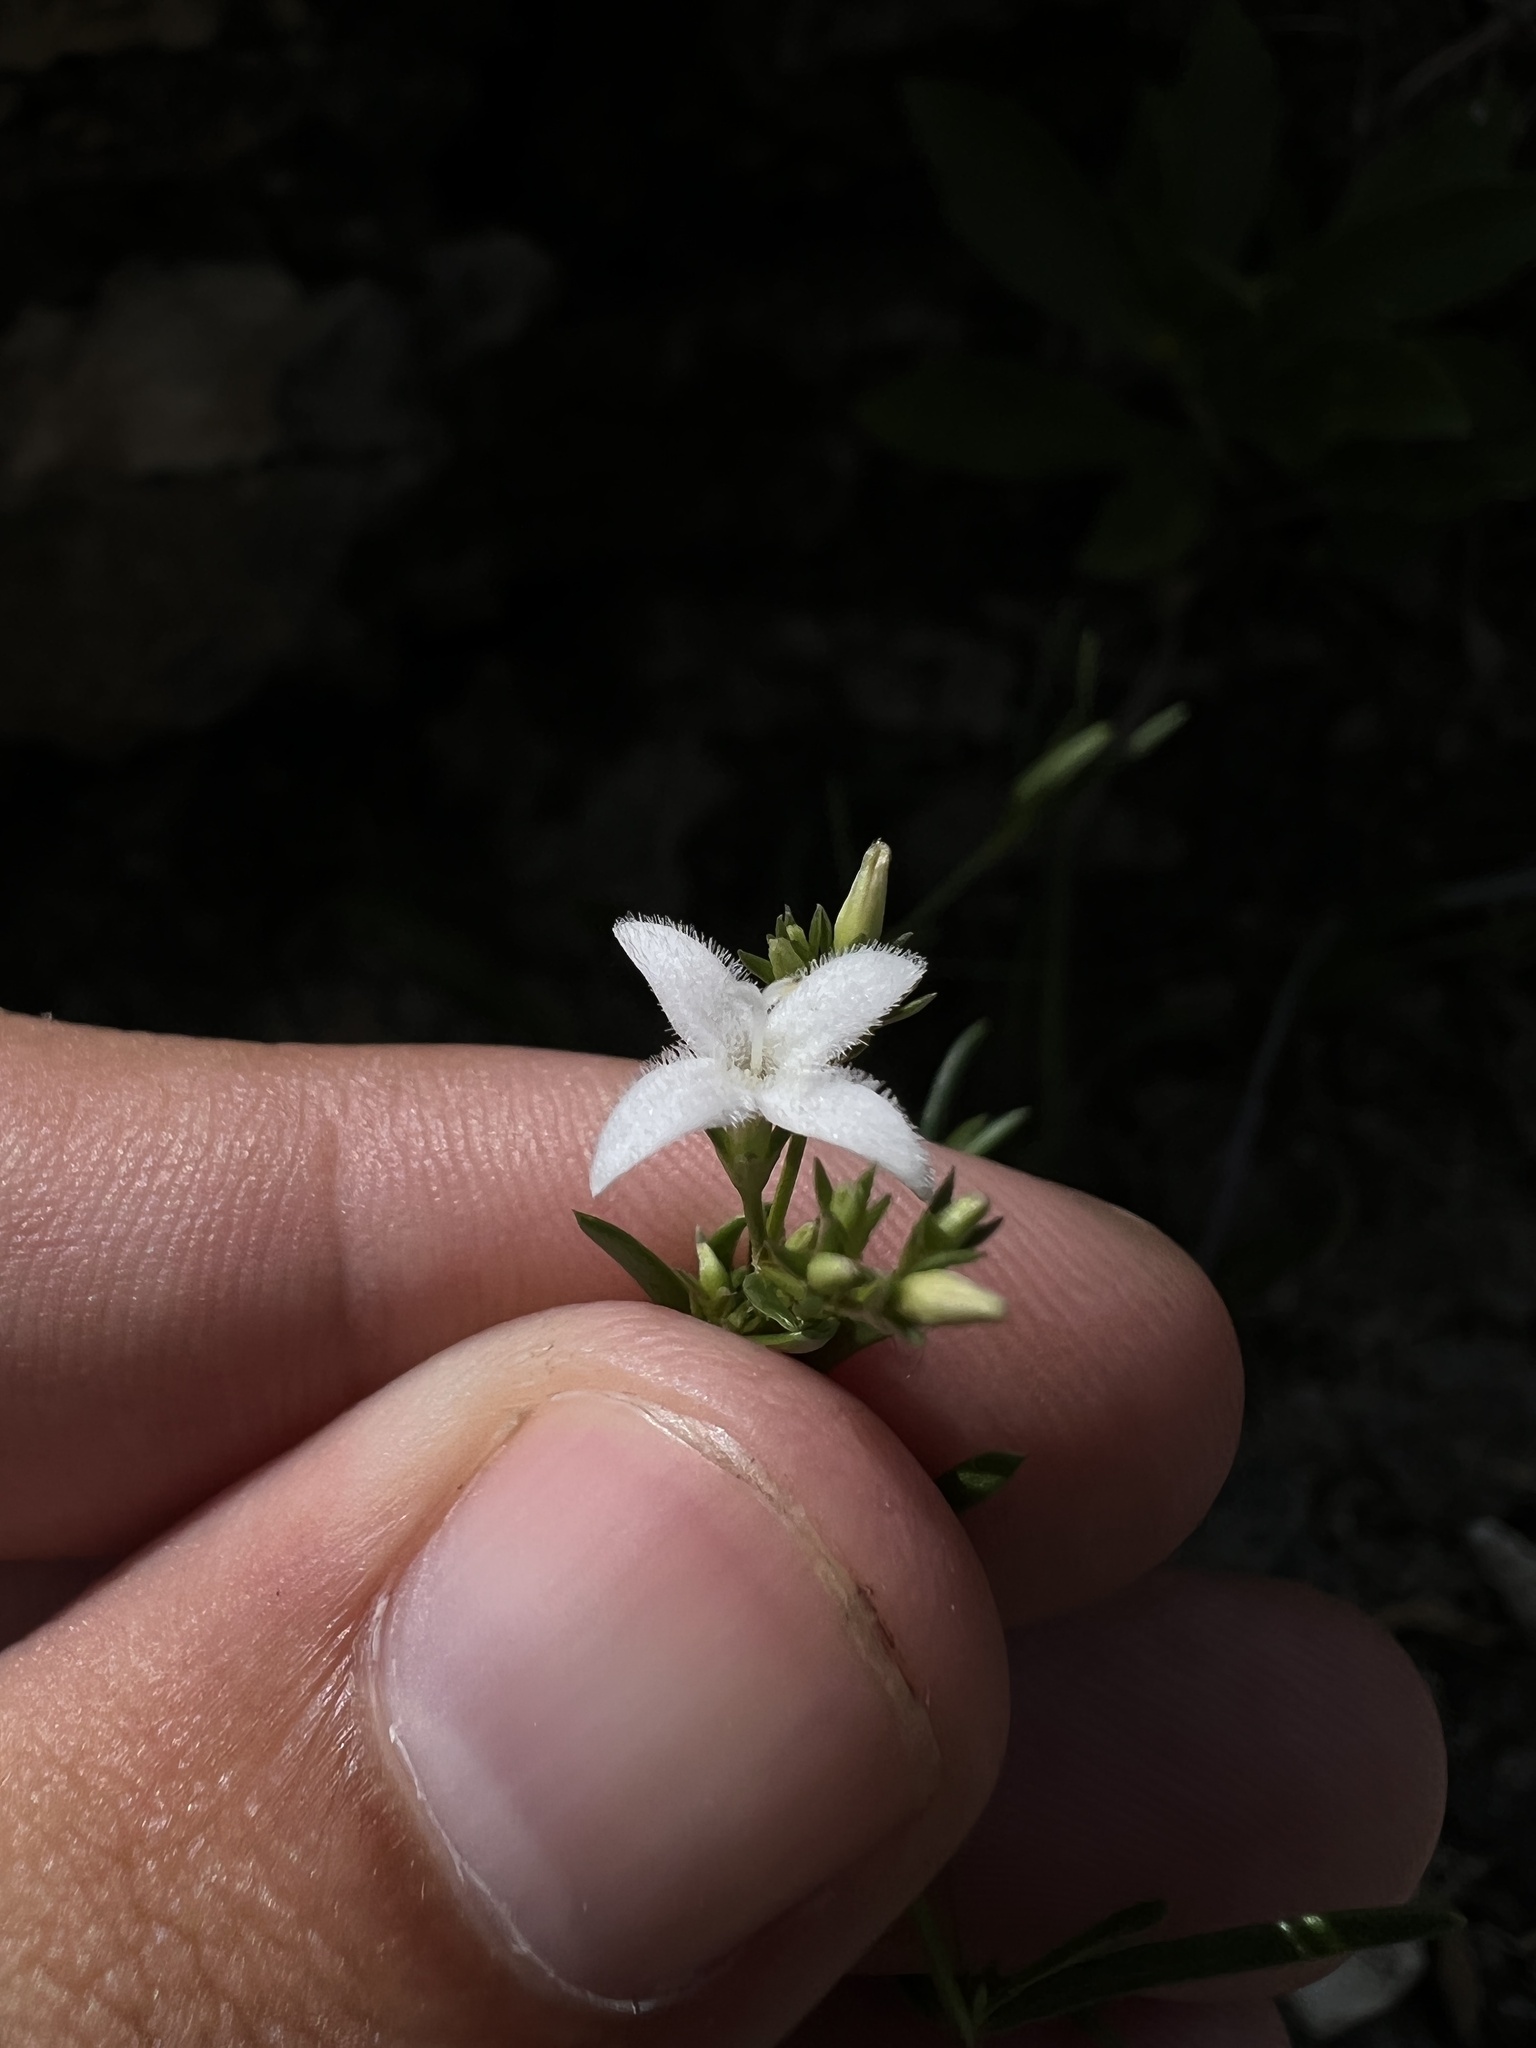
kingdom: Plantae
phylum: Tracheophyta
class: Magnoliopsida
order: Gentianales
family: Rubiaceae
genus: Stenaria
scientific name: Stenaria nigricans
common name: Diamondflowers
